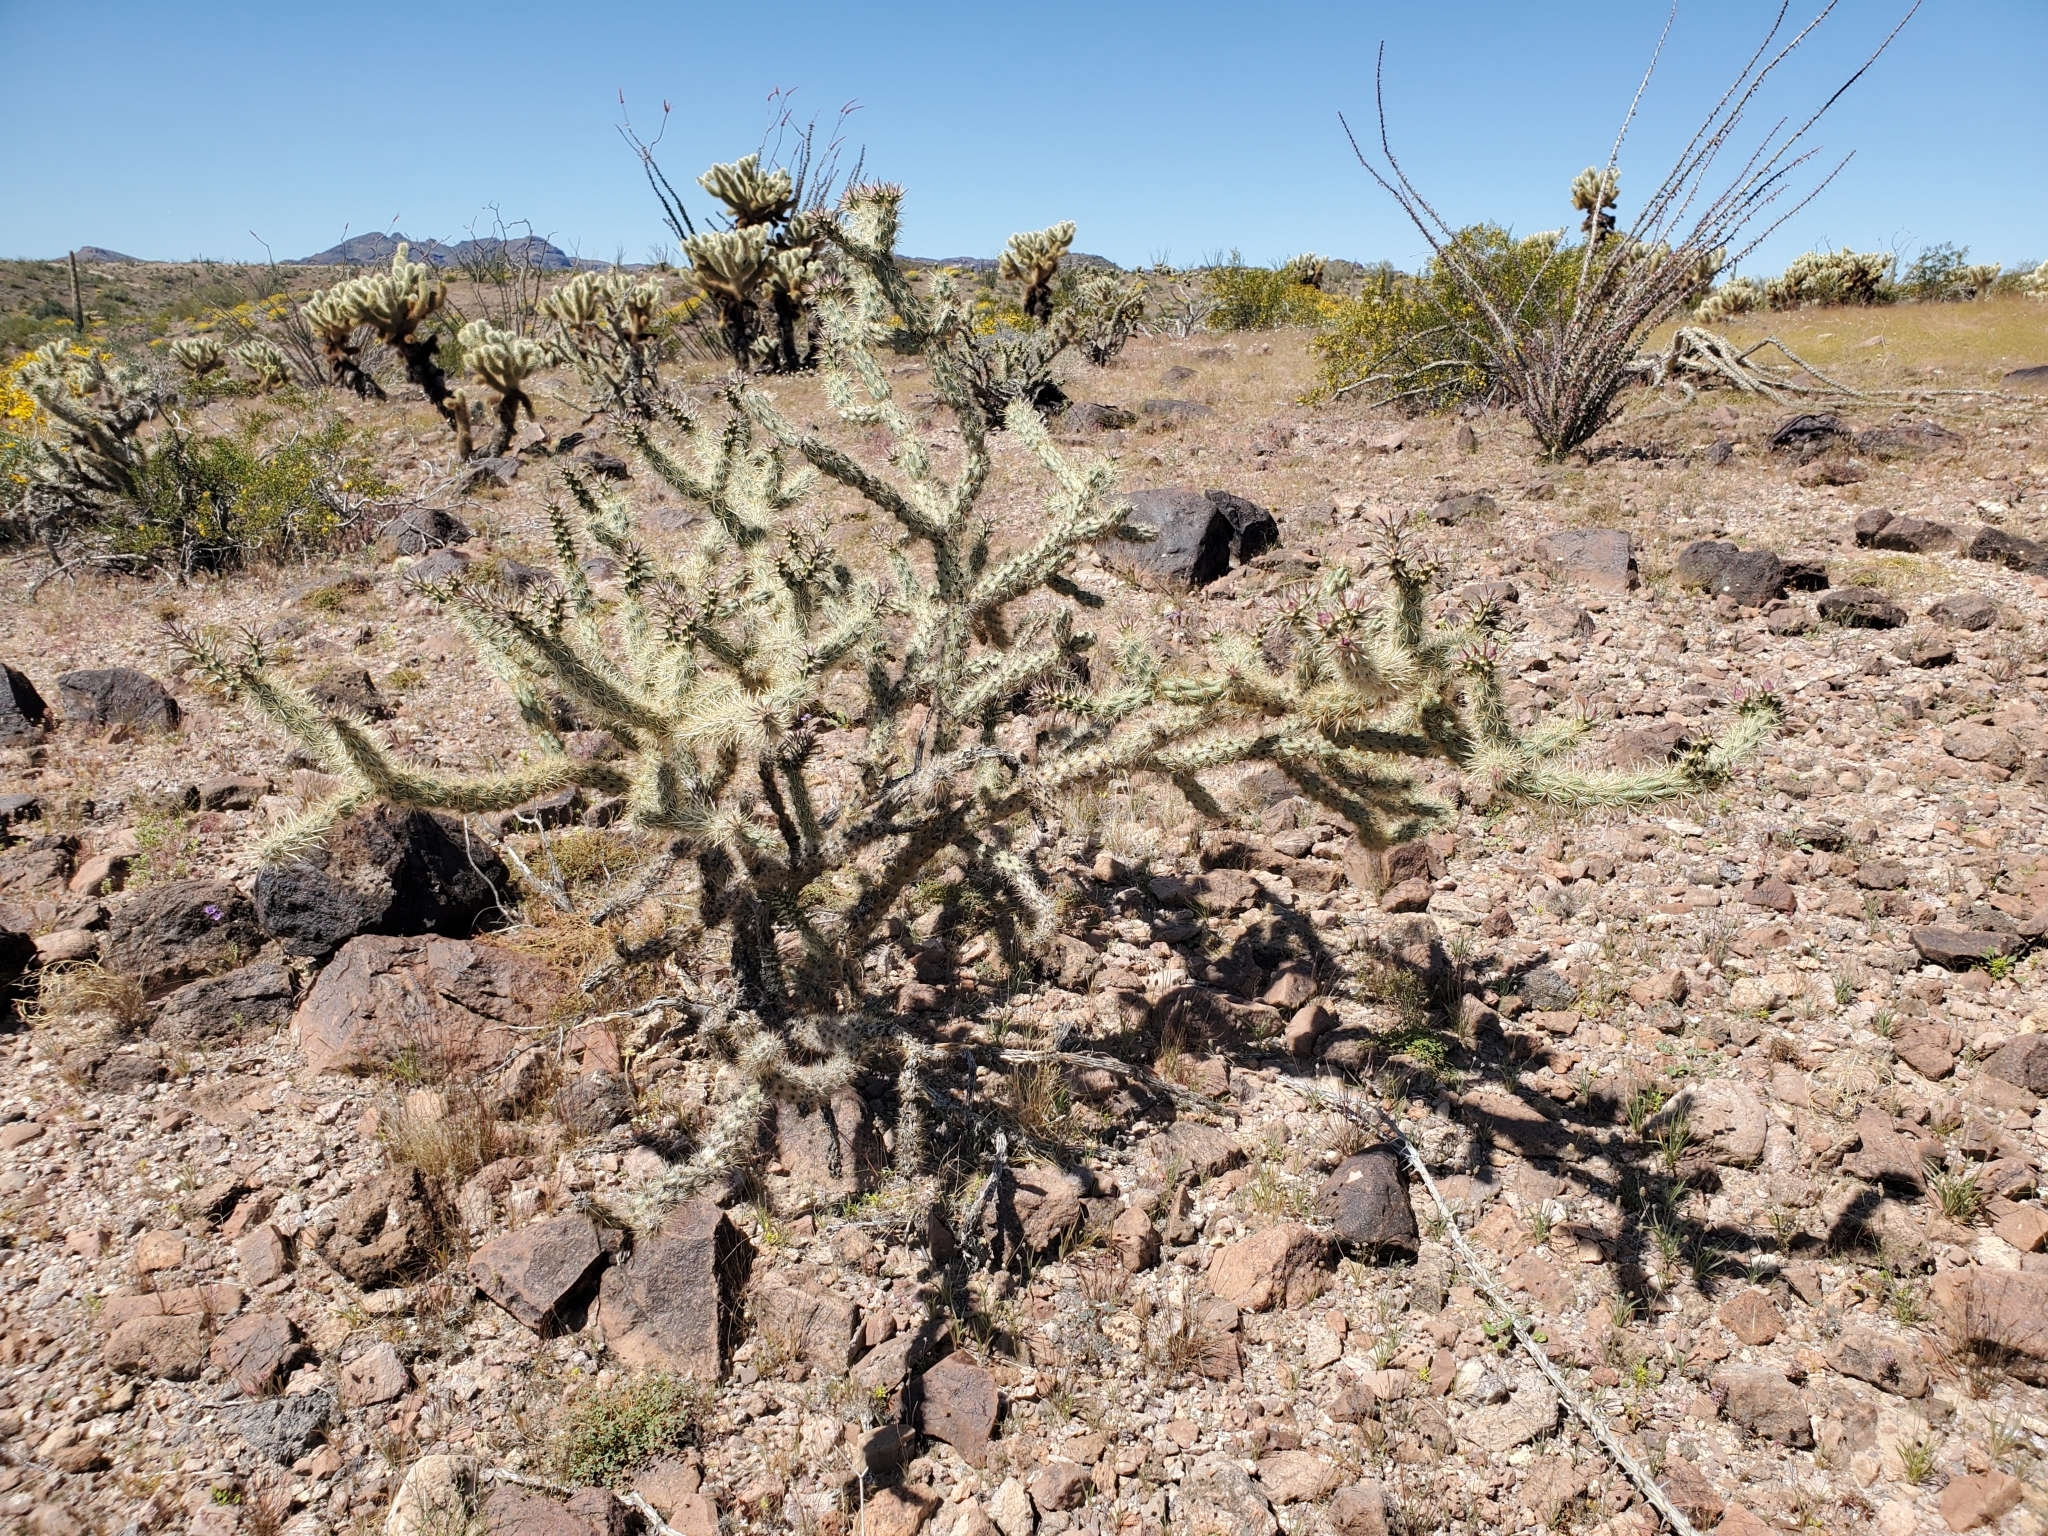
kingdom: Plantae
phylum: Tracheophyta
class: Magnoliopsida
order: Caryophyllales
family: Cactaceae
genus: Cylindropuntia
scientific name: Cylindropuntia acanthocarpa
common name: Buckhorn cholla
